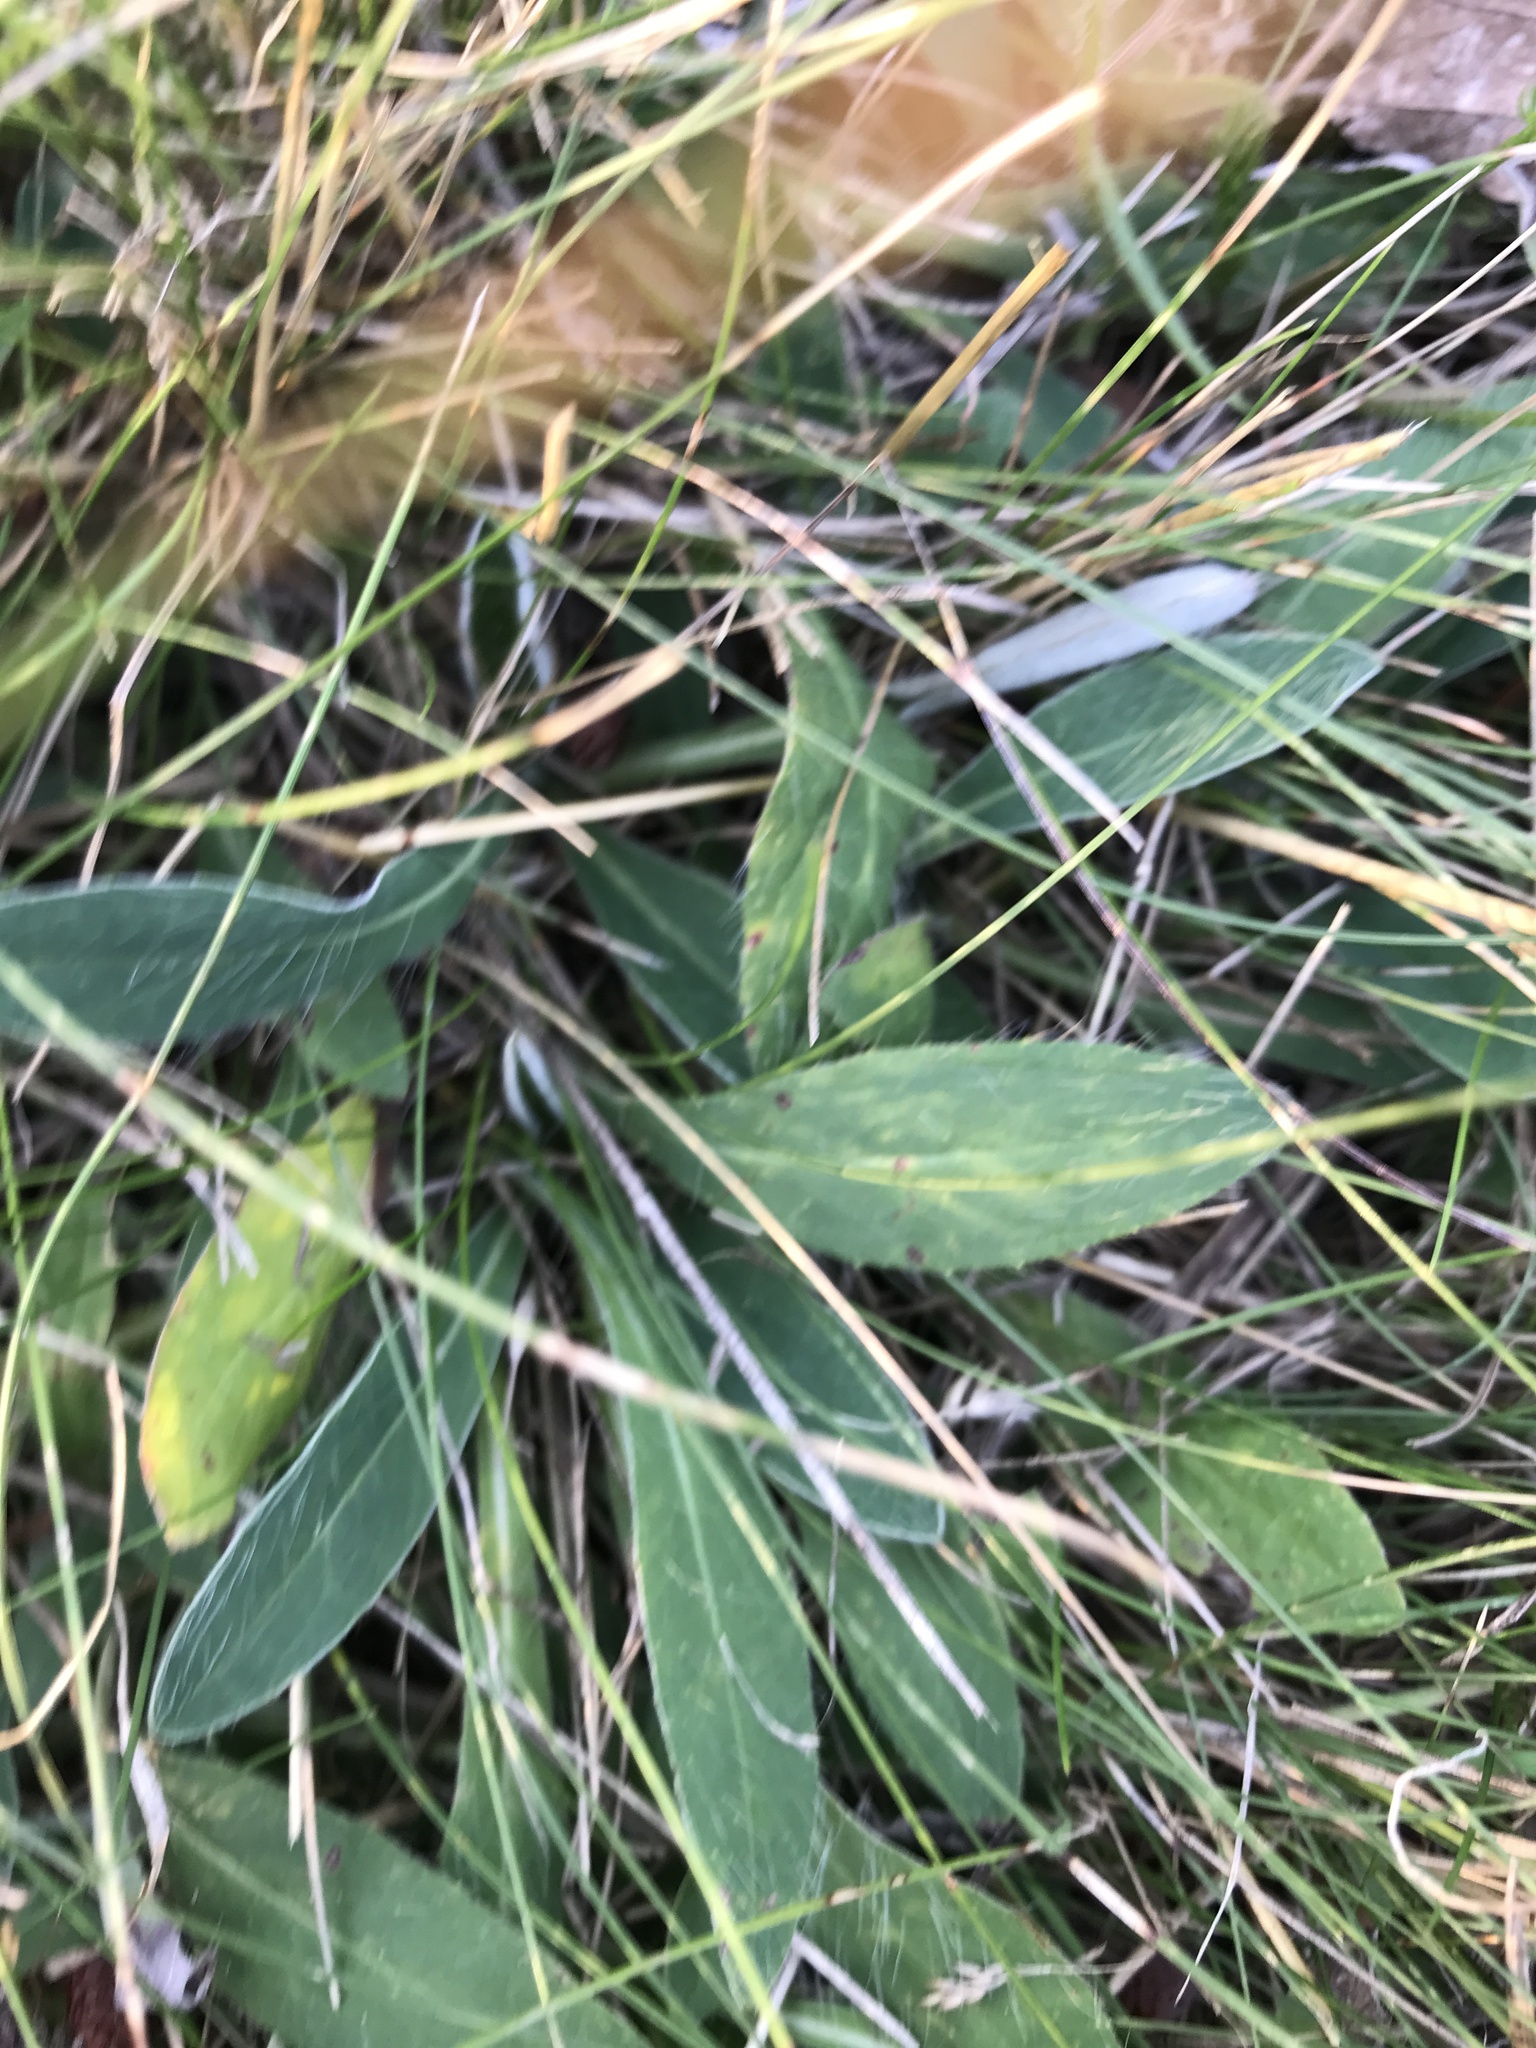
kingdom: Plantae
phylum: Tracheophyta
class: Magnoliopsida
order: Asterales
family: Asteraceae
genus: Pilosella
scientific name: Pilosella officinarum
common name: Mouse-ear hawkweed
